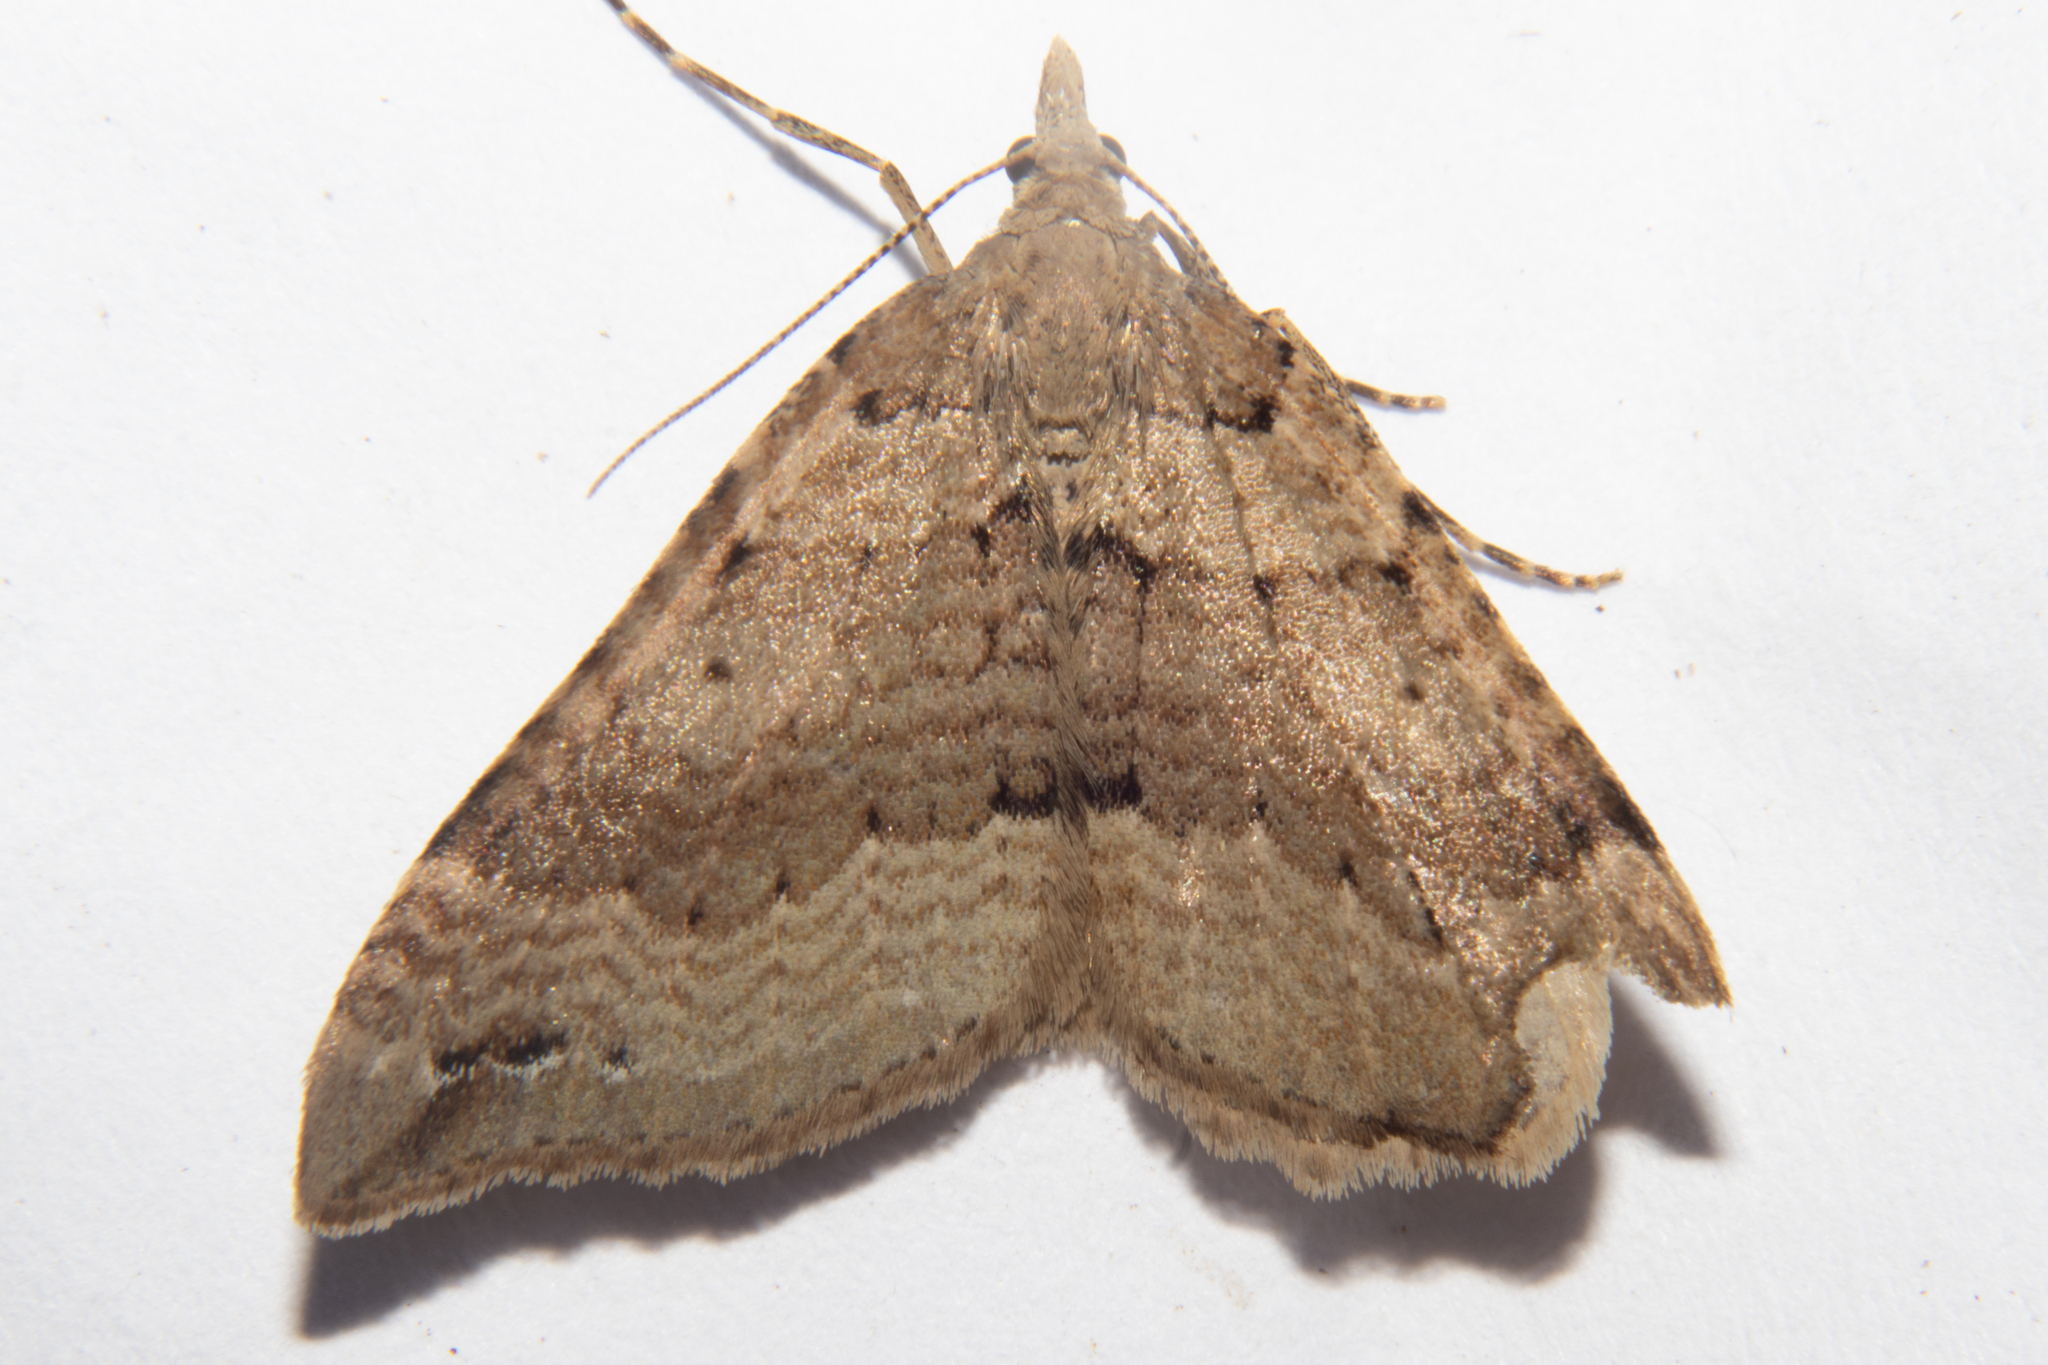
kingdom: Animalia
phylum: Arthropoda
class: Insecta
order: Lepidoptera
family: Geometridae
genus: Homodotis
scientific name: Homodotis falcata
